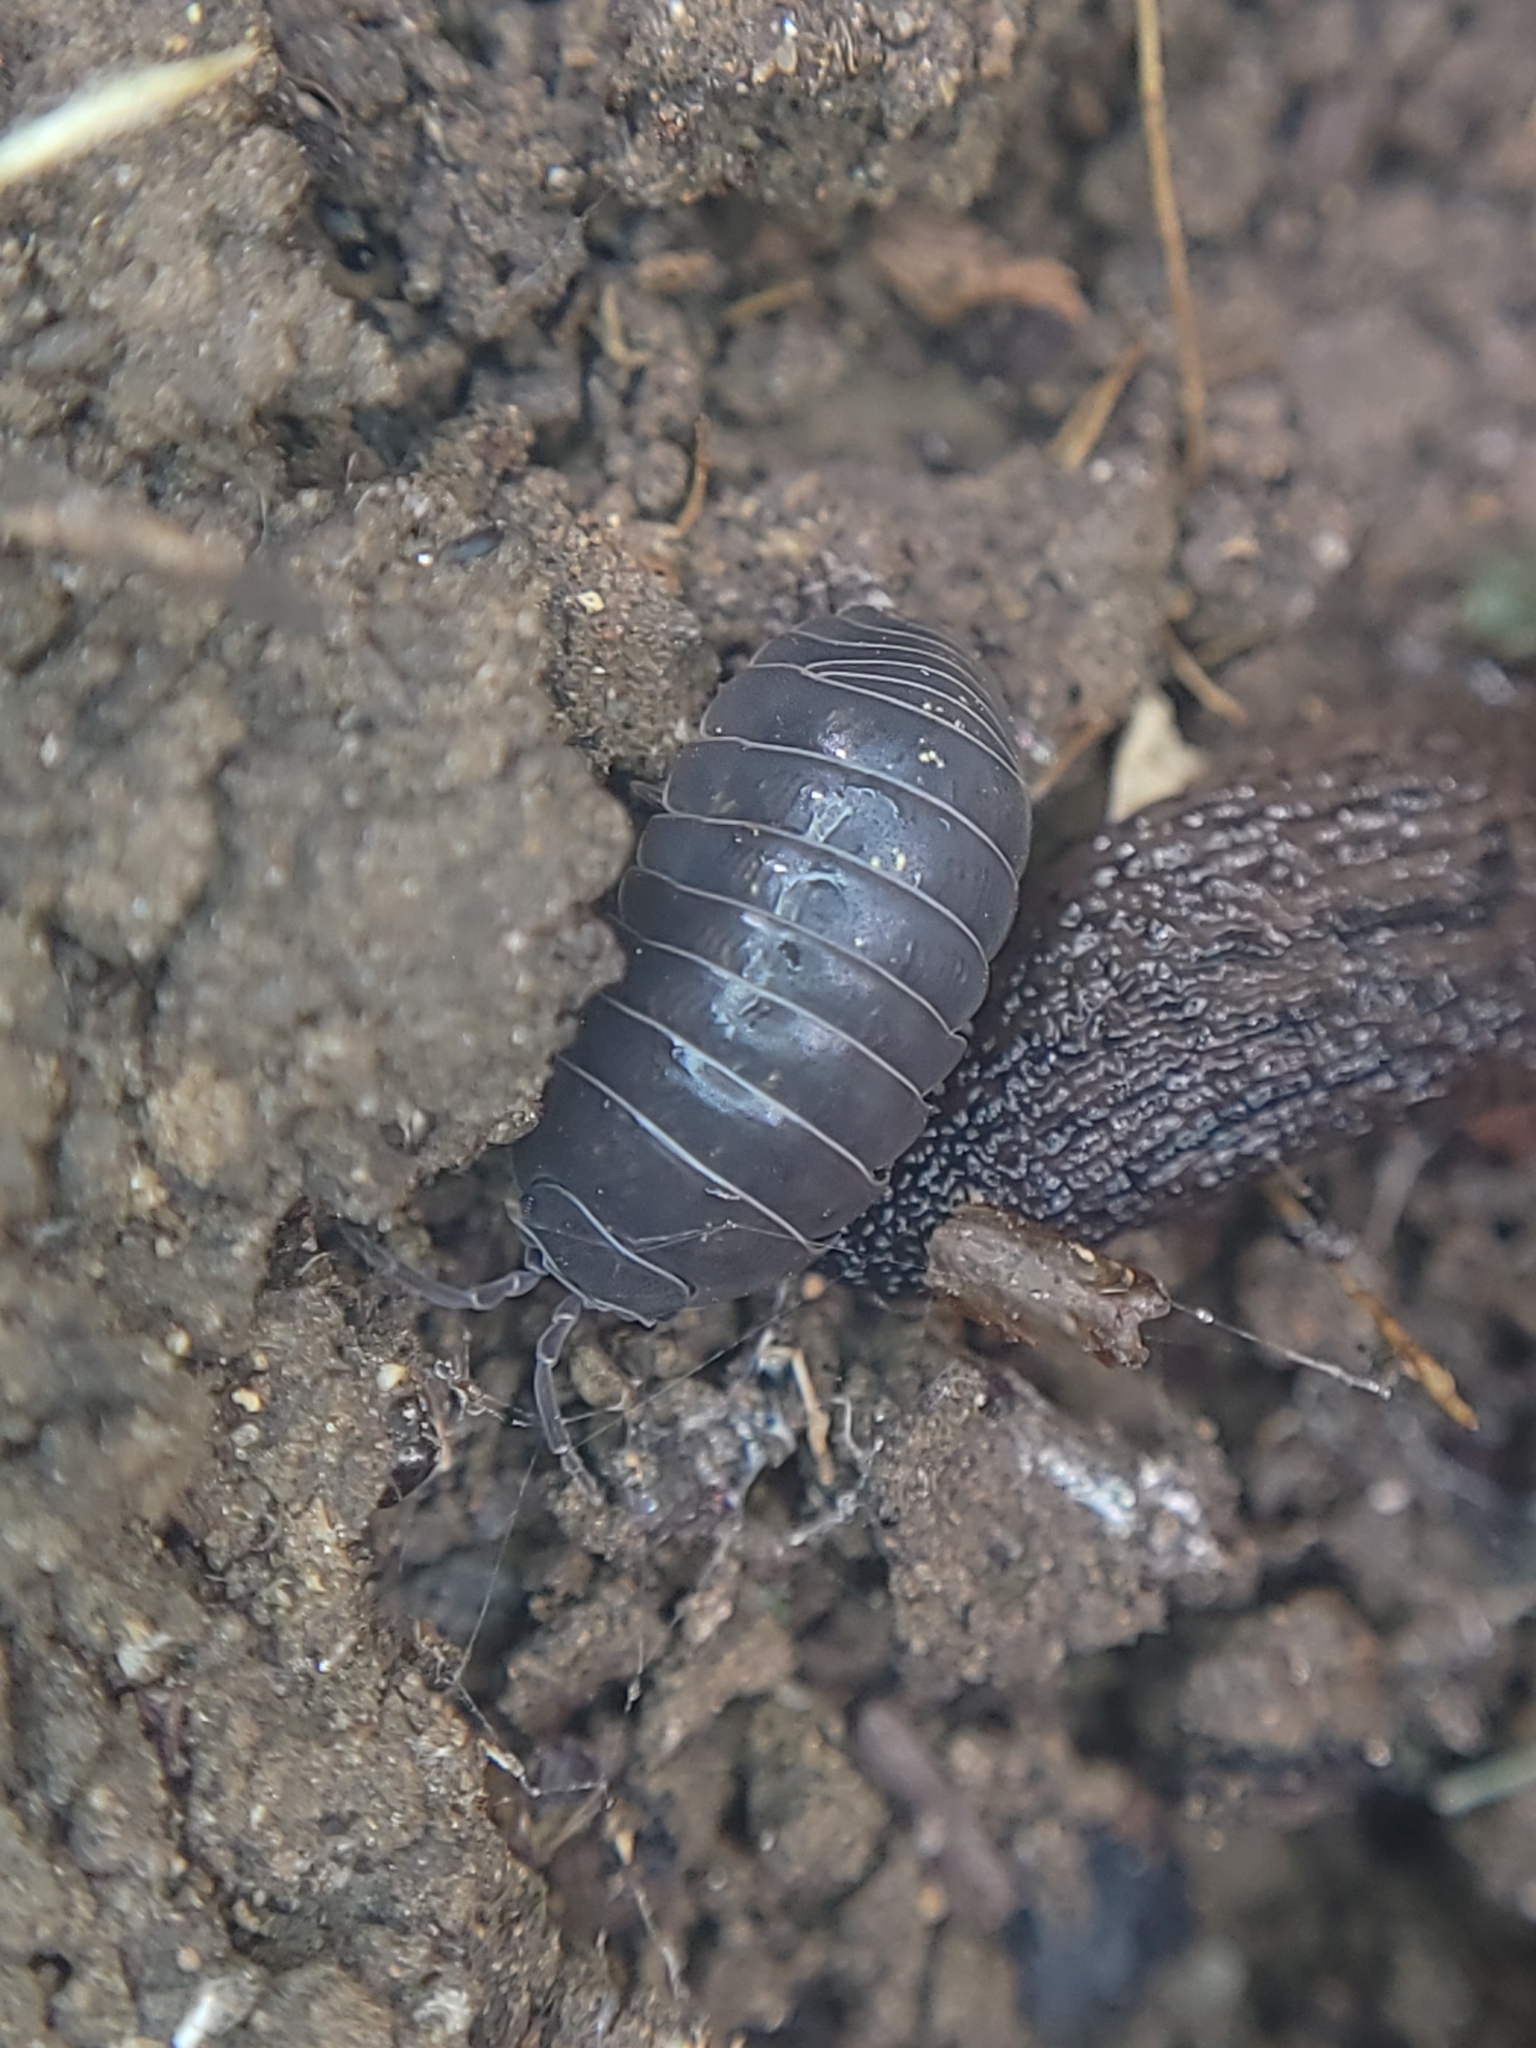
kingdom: Animalia
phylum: Arthropoda
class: Malacostraca
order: Isopoda
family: Armadillidiidae
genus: Armadillidium
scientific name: Armadillidium vulgare
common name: Common pill woodlouse
